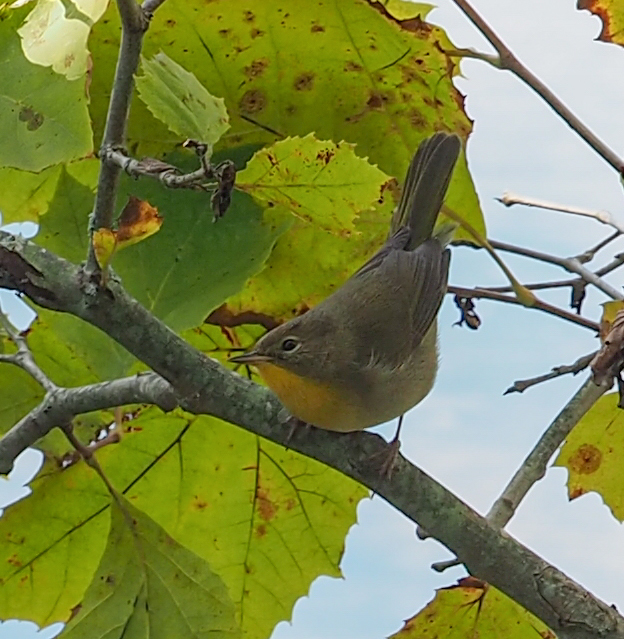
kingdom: Animalia
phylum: Chordata
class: Aves
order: Passeriformes
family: Parulidae
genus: Geothlypis
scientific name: Geothlypis trichas
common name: Common yellowthroat
